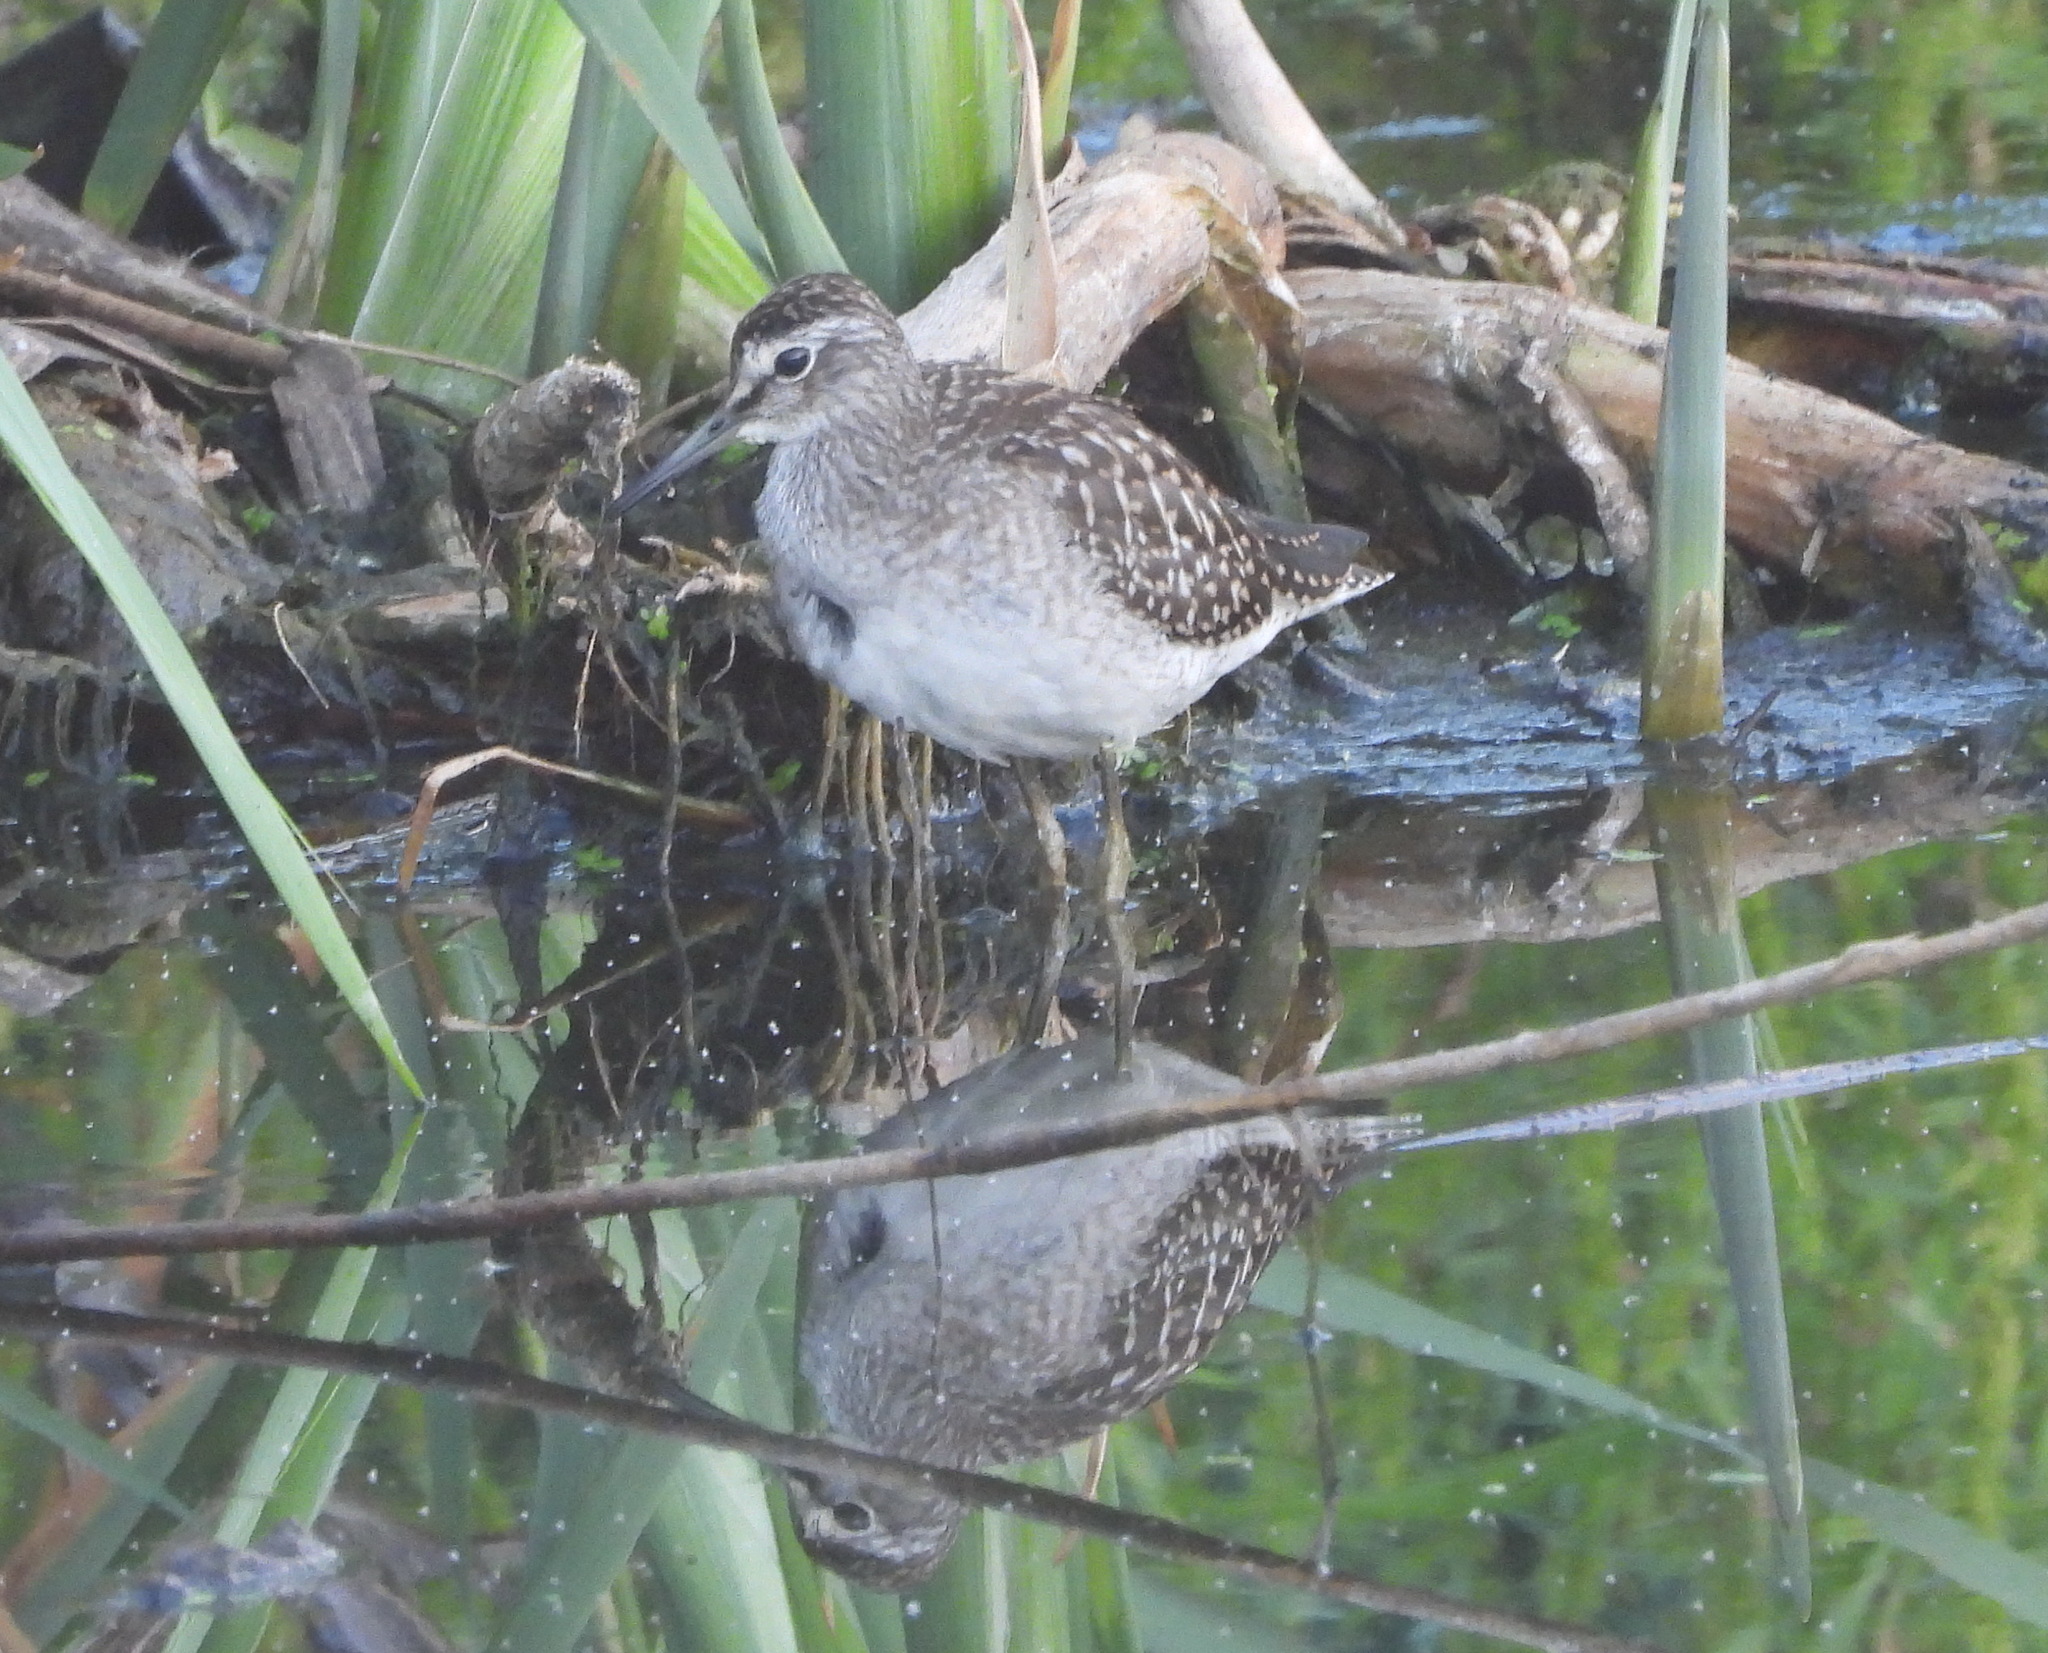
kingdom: Animalia
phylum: Chordata
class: Aves
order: Charadriiformes
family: Scolopacidae
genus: Tringa
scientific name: Tringa glareola
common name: Wood sandpiper
